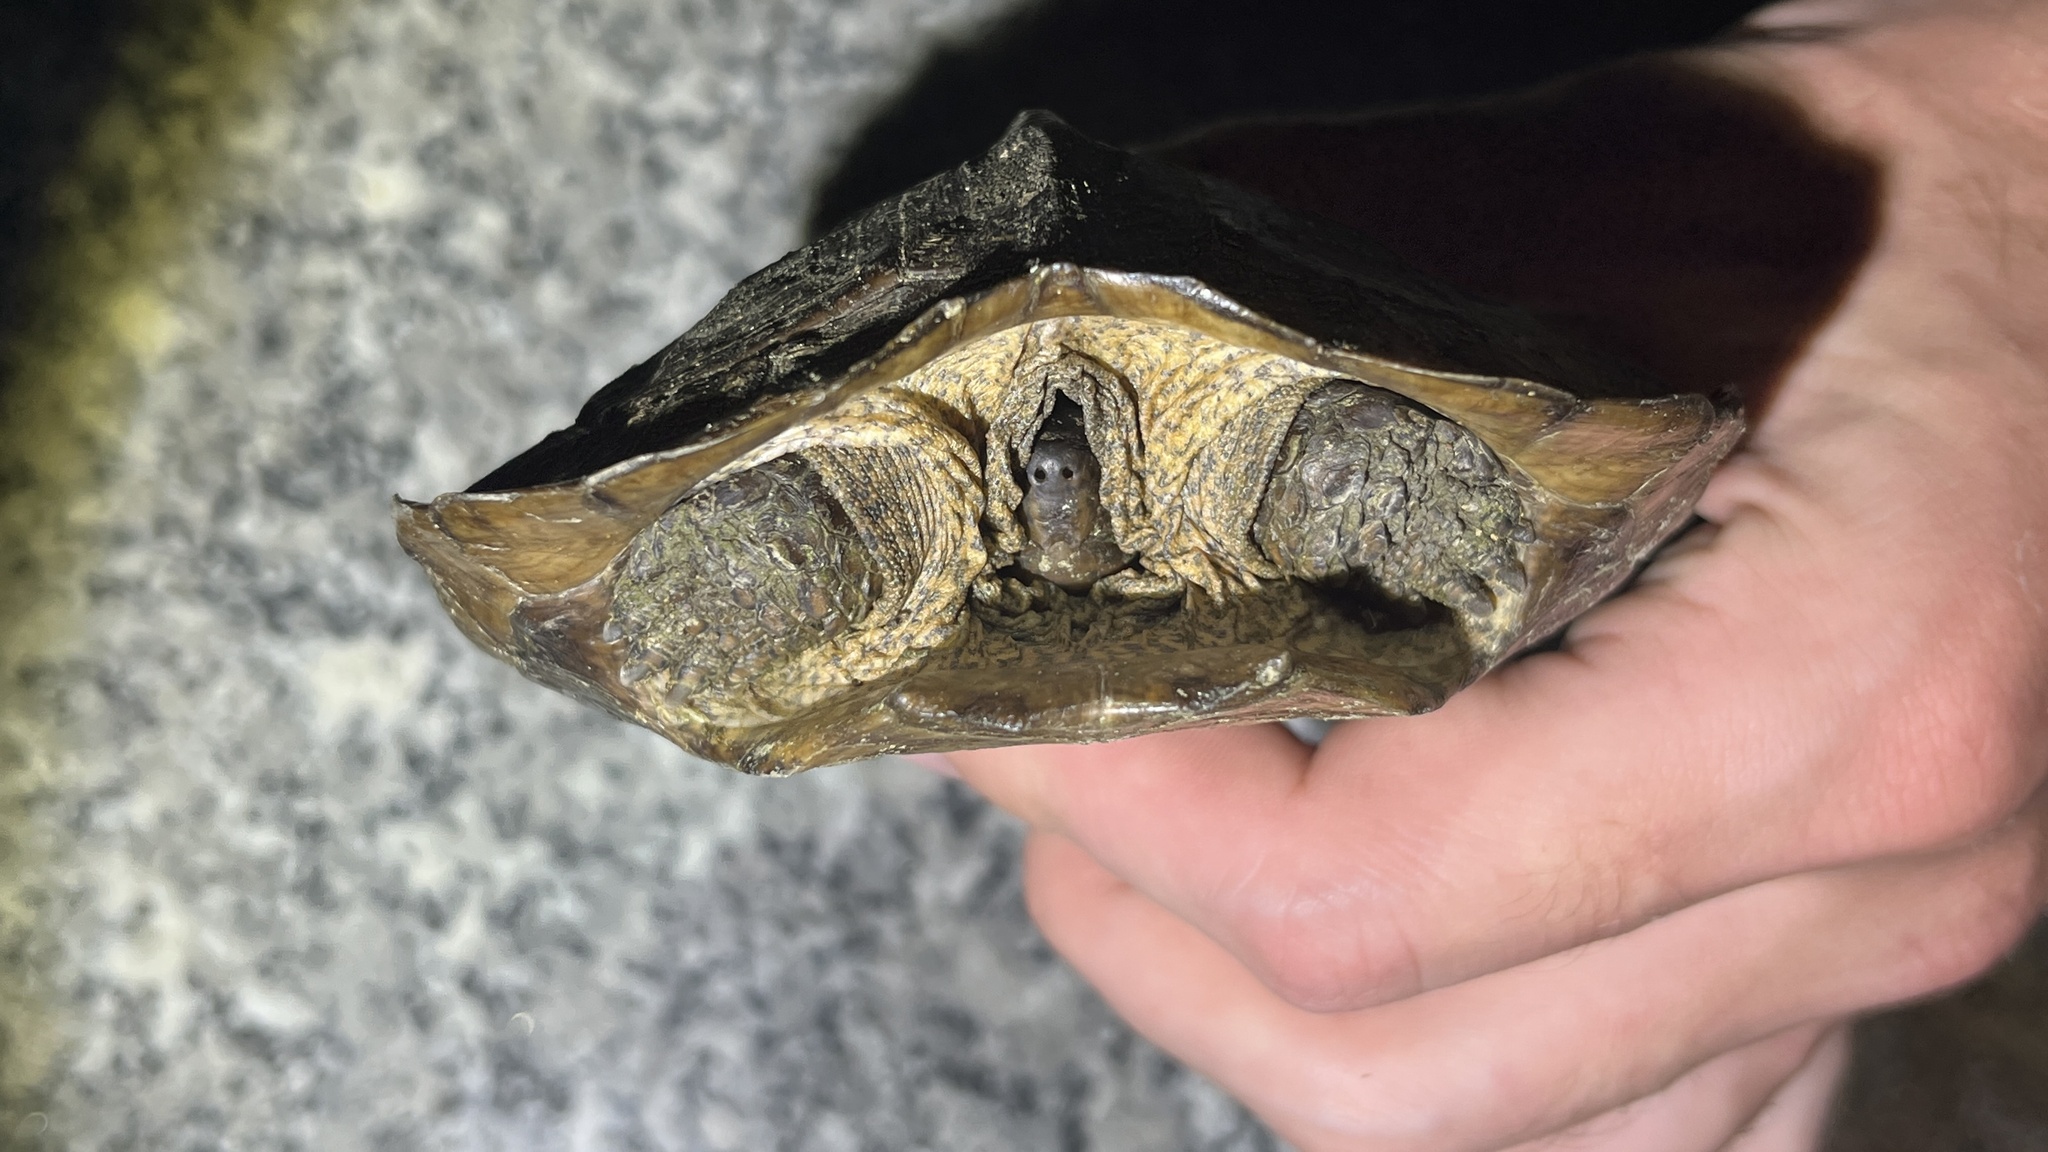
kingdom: Animalia
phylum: Chordata
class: Testudines
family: Geoemydidae
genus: Heosemys
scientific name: Heosemys grandis
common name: Giant asian pond turtle
